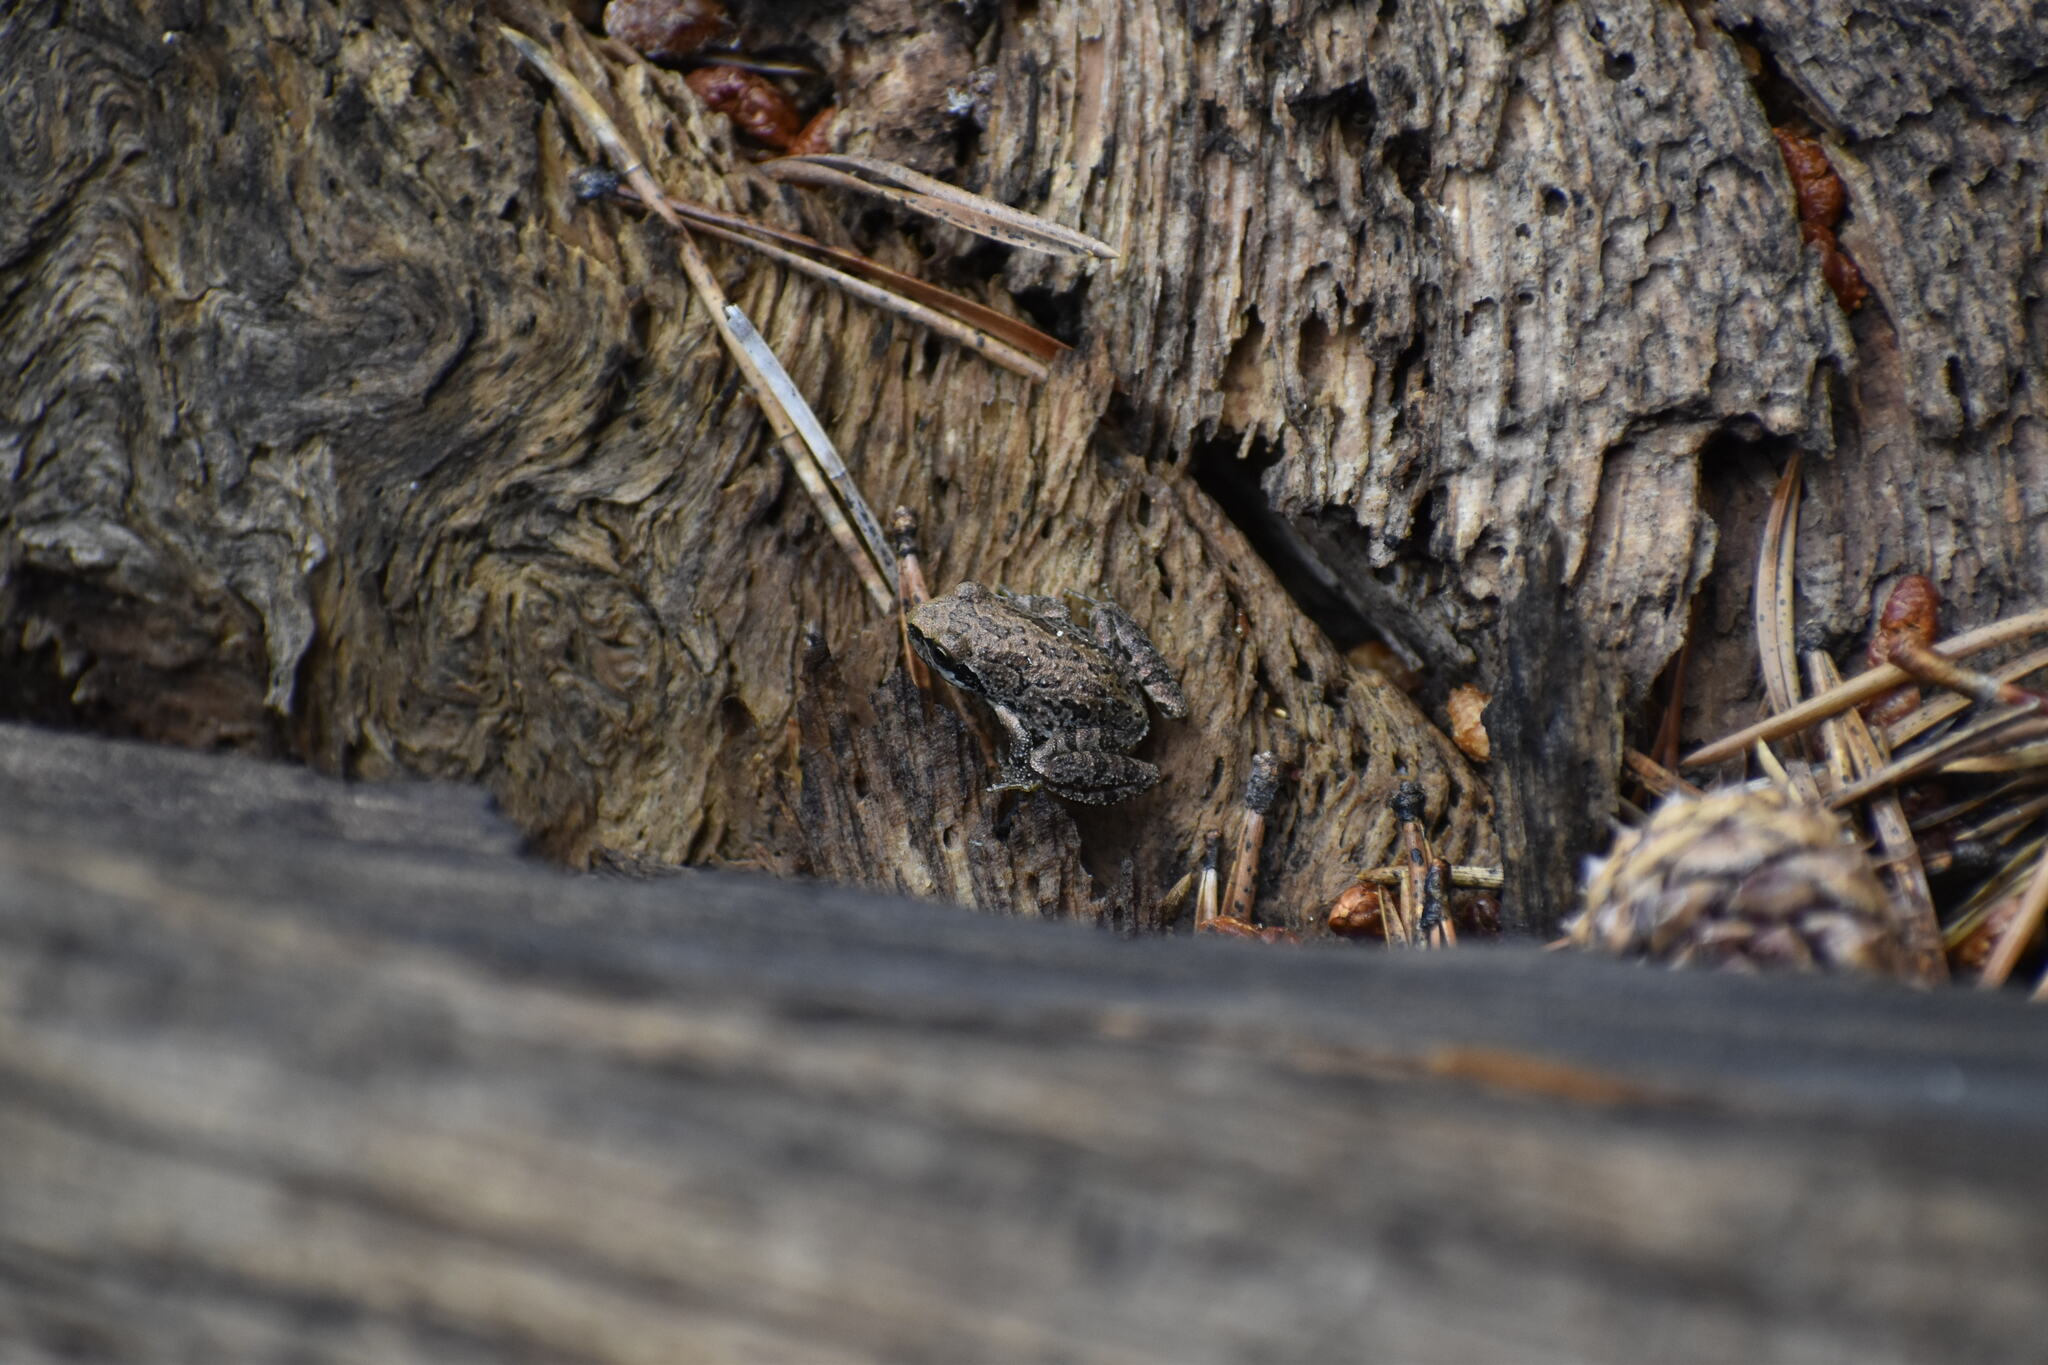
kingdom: Animalia
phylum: Chordata
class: Amphibia
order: Anura
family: Hylidae
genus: Pseudacris
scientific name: Pseudacris regilla
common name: Pacific chorus frog
